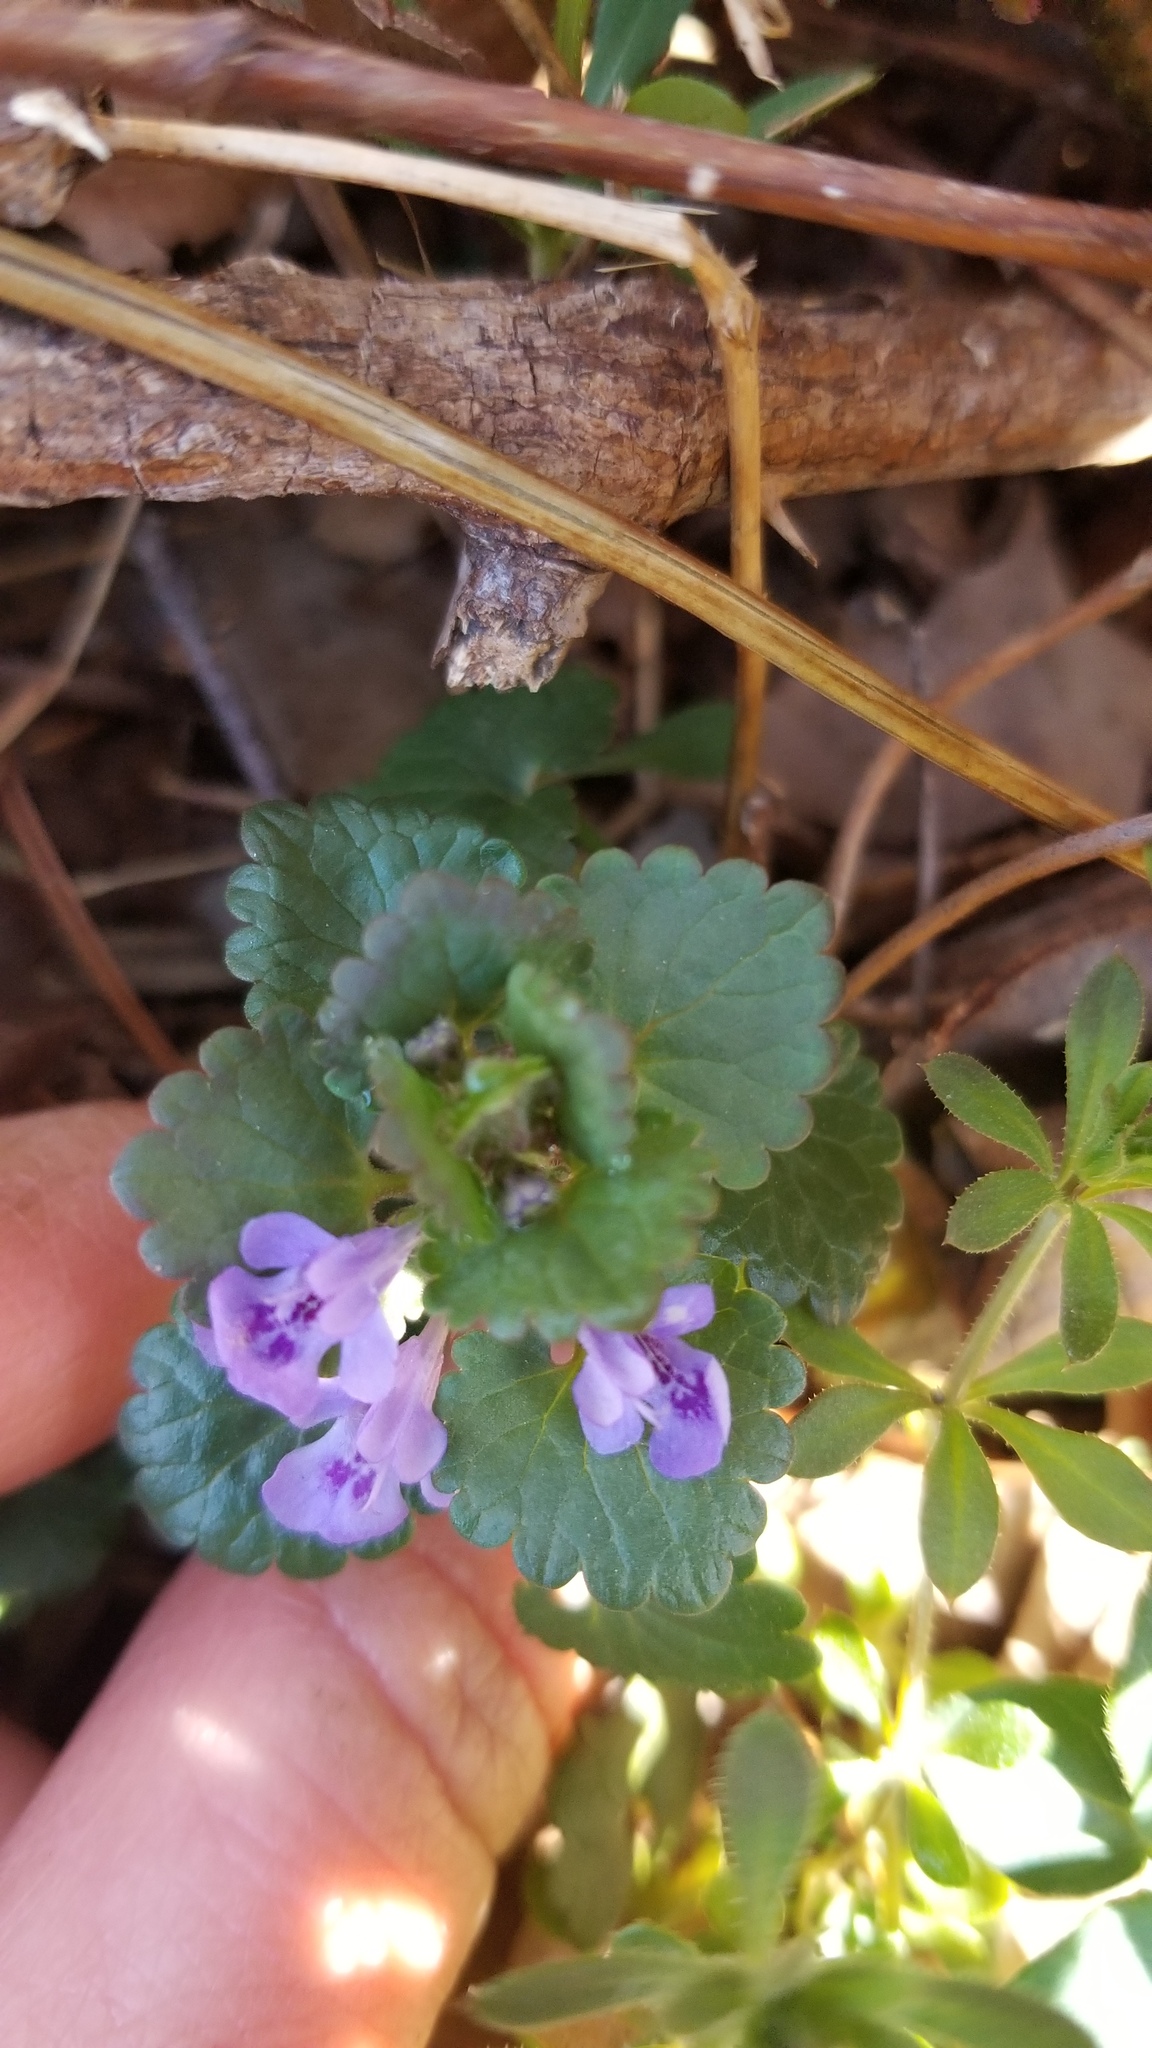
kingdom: Plantae
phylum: Tracheophyta
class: Magnoliopsida
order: Lamiales
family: Lamiaceae
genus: Glechoma
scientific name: Glechoma hederacea
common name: Ground ivy
